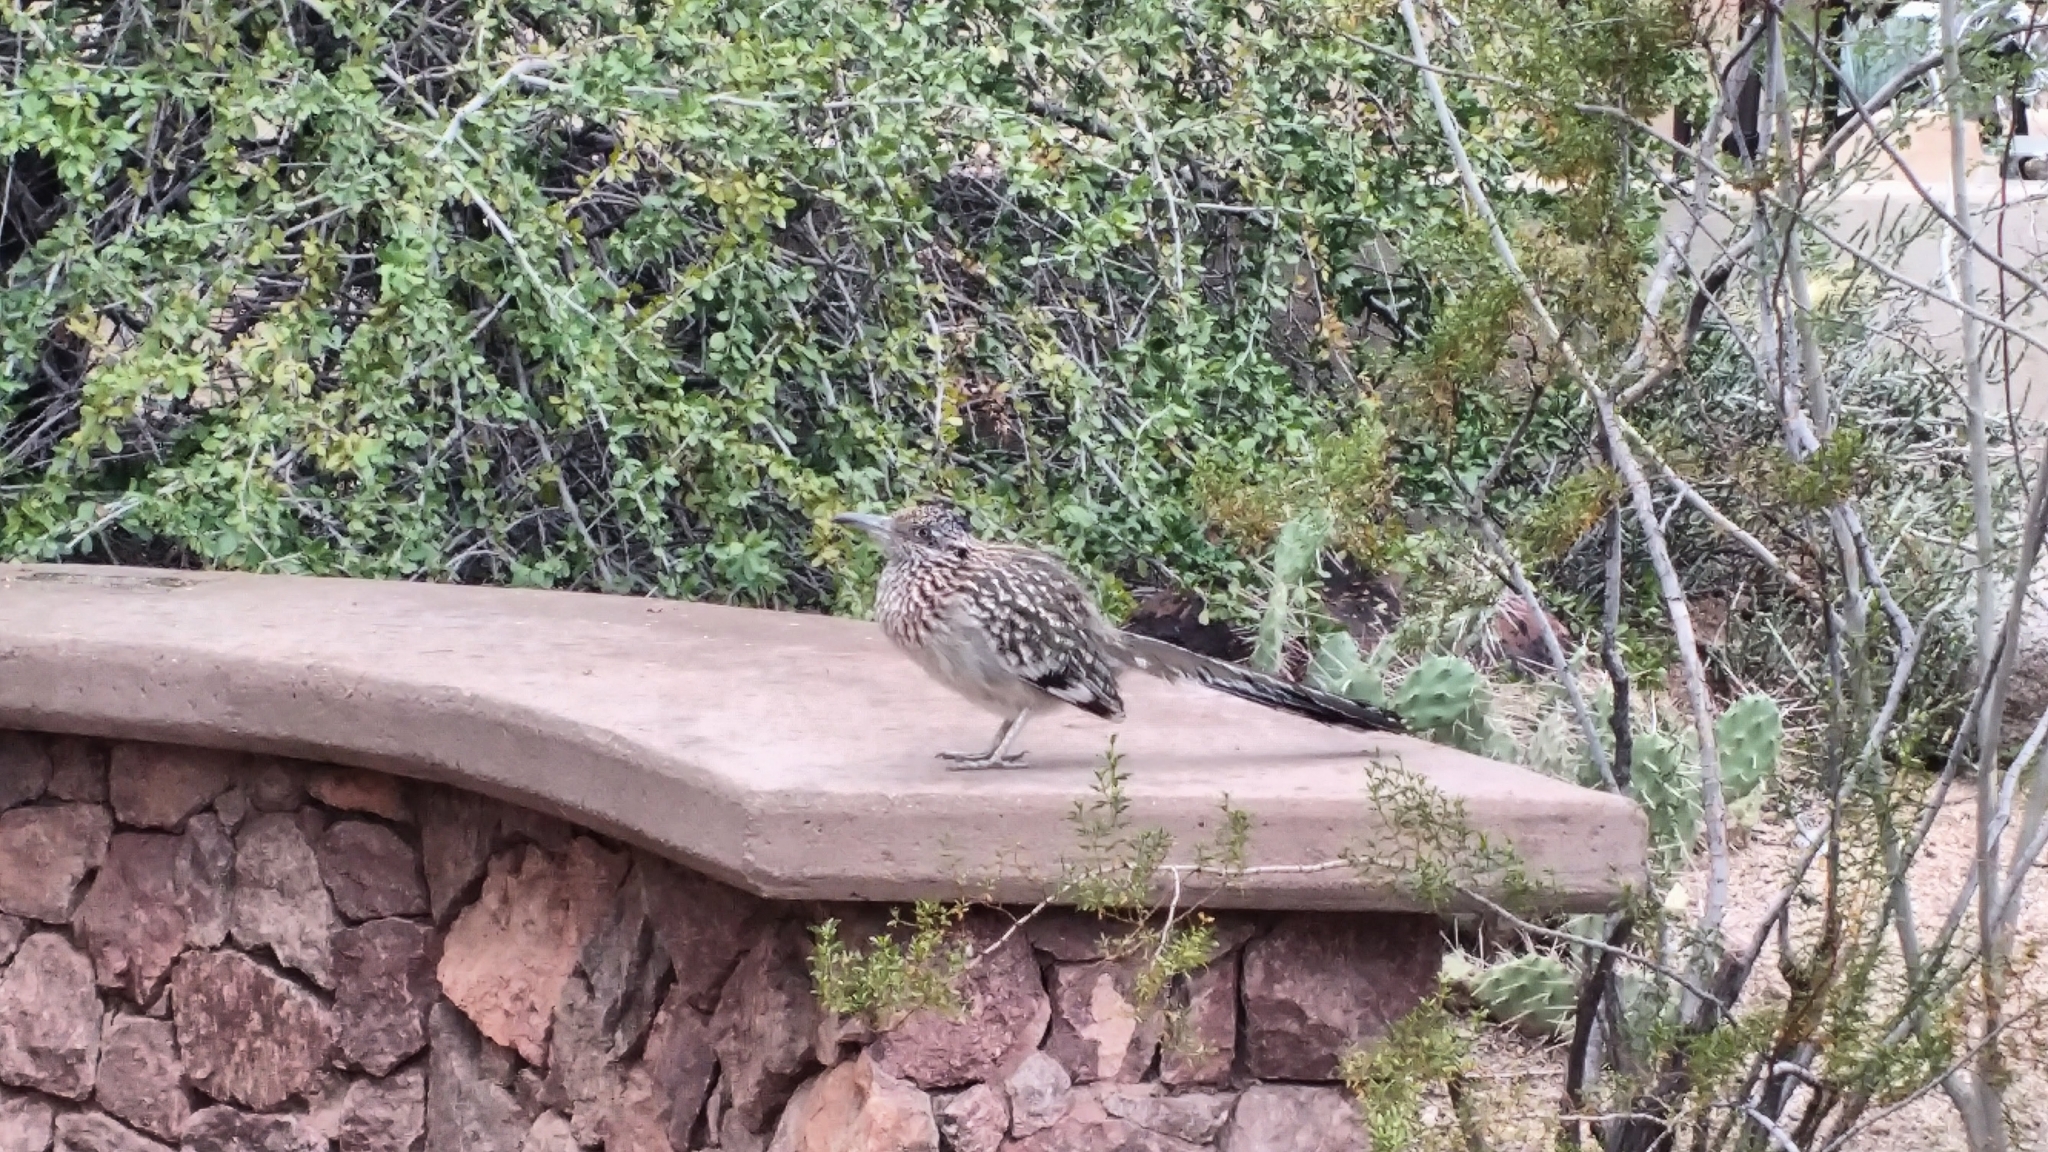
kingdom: Animalia
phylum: Chordata
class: Aves
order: Cuculiformes
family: Cuculidae
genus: Geococcyx
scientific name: Geococcyx californianus
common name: Greater roadrunner
